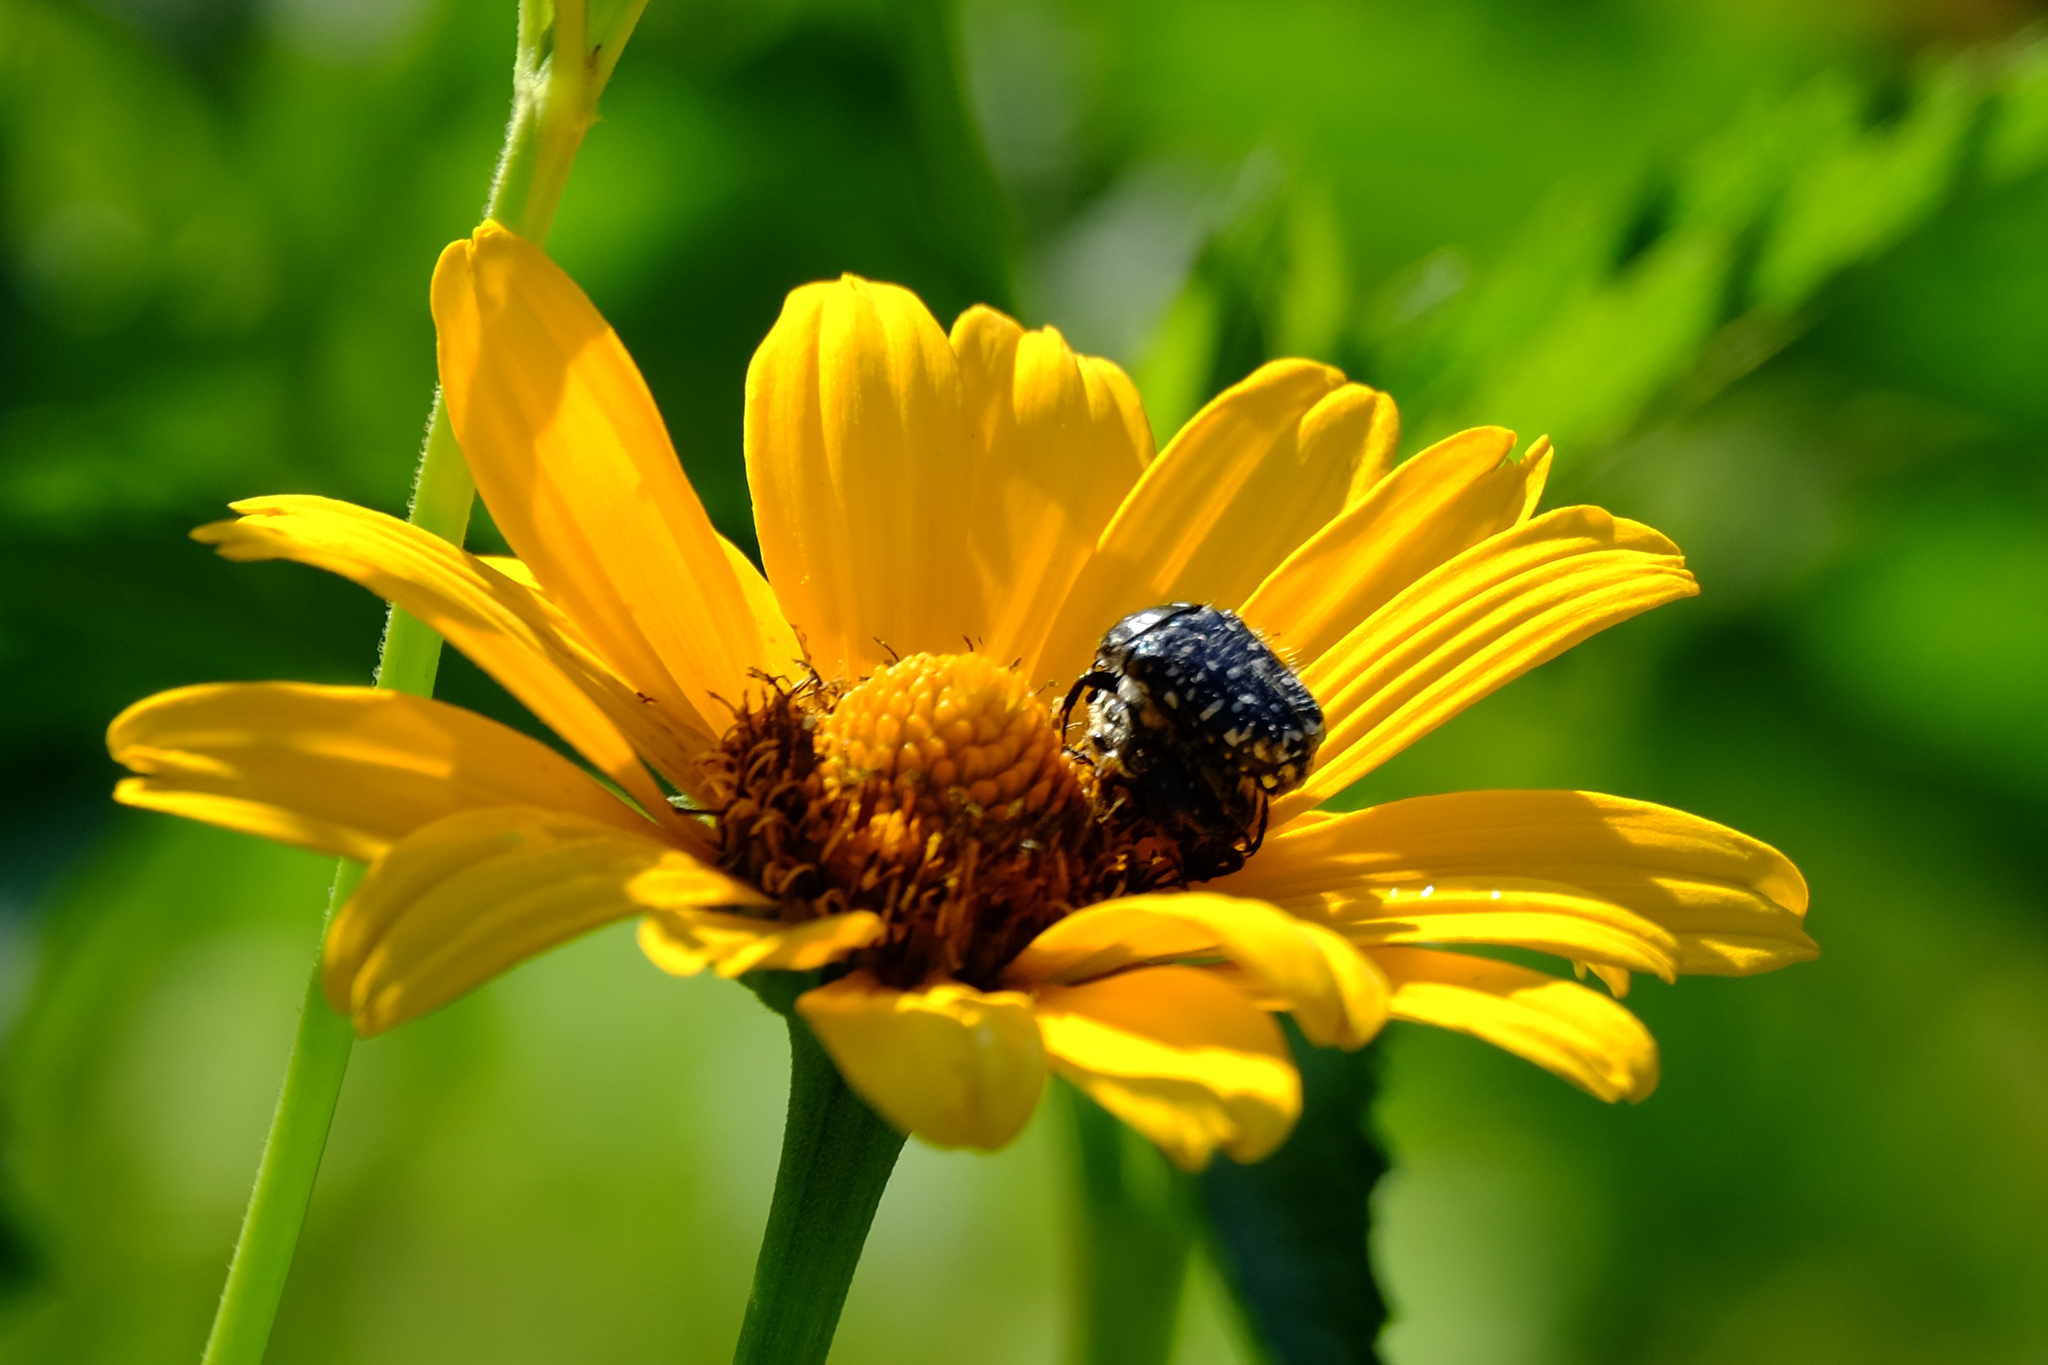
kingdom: Animalia
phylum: Arthropoda
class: Insecta
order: Coleoptera
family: Scarabaeidae
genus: Oxythyrea
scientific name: Oxythyrea funesta
